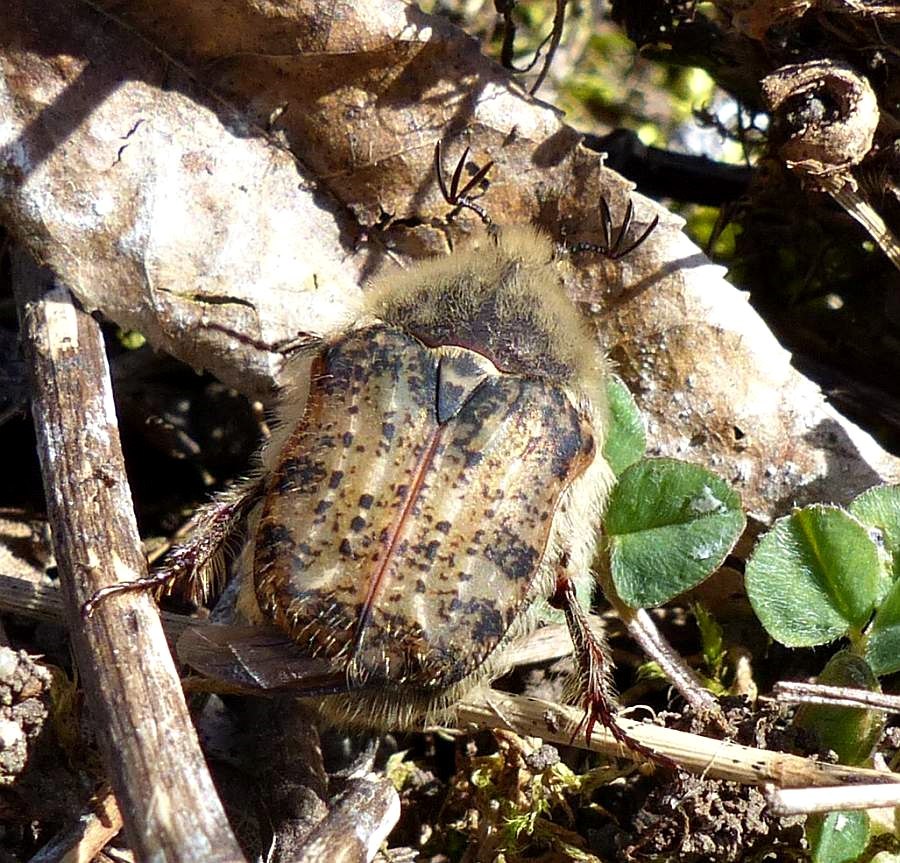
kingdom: Animalia
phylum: Arthropoda
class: Insecta
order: Coleoptera
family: Scarabaeidae
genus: Euphoria
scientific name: Euphoria inda
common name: Bumble flower beetle
